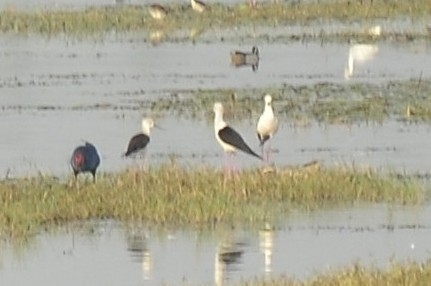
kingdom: Animalia
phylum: Chordata
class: Aves
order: Charadriiformes
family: Recurvirostridae
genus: Himantopus
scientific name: Himantopus himantopus
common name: Black-winged stilt
